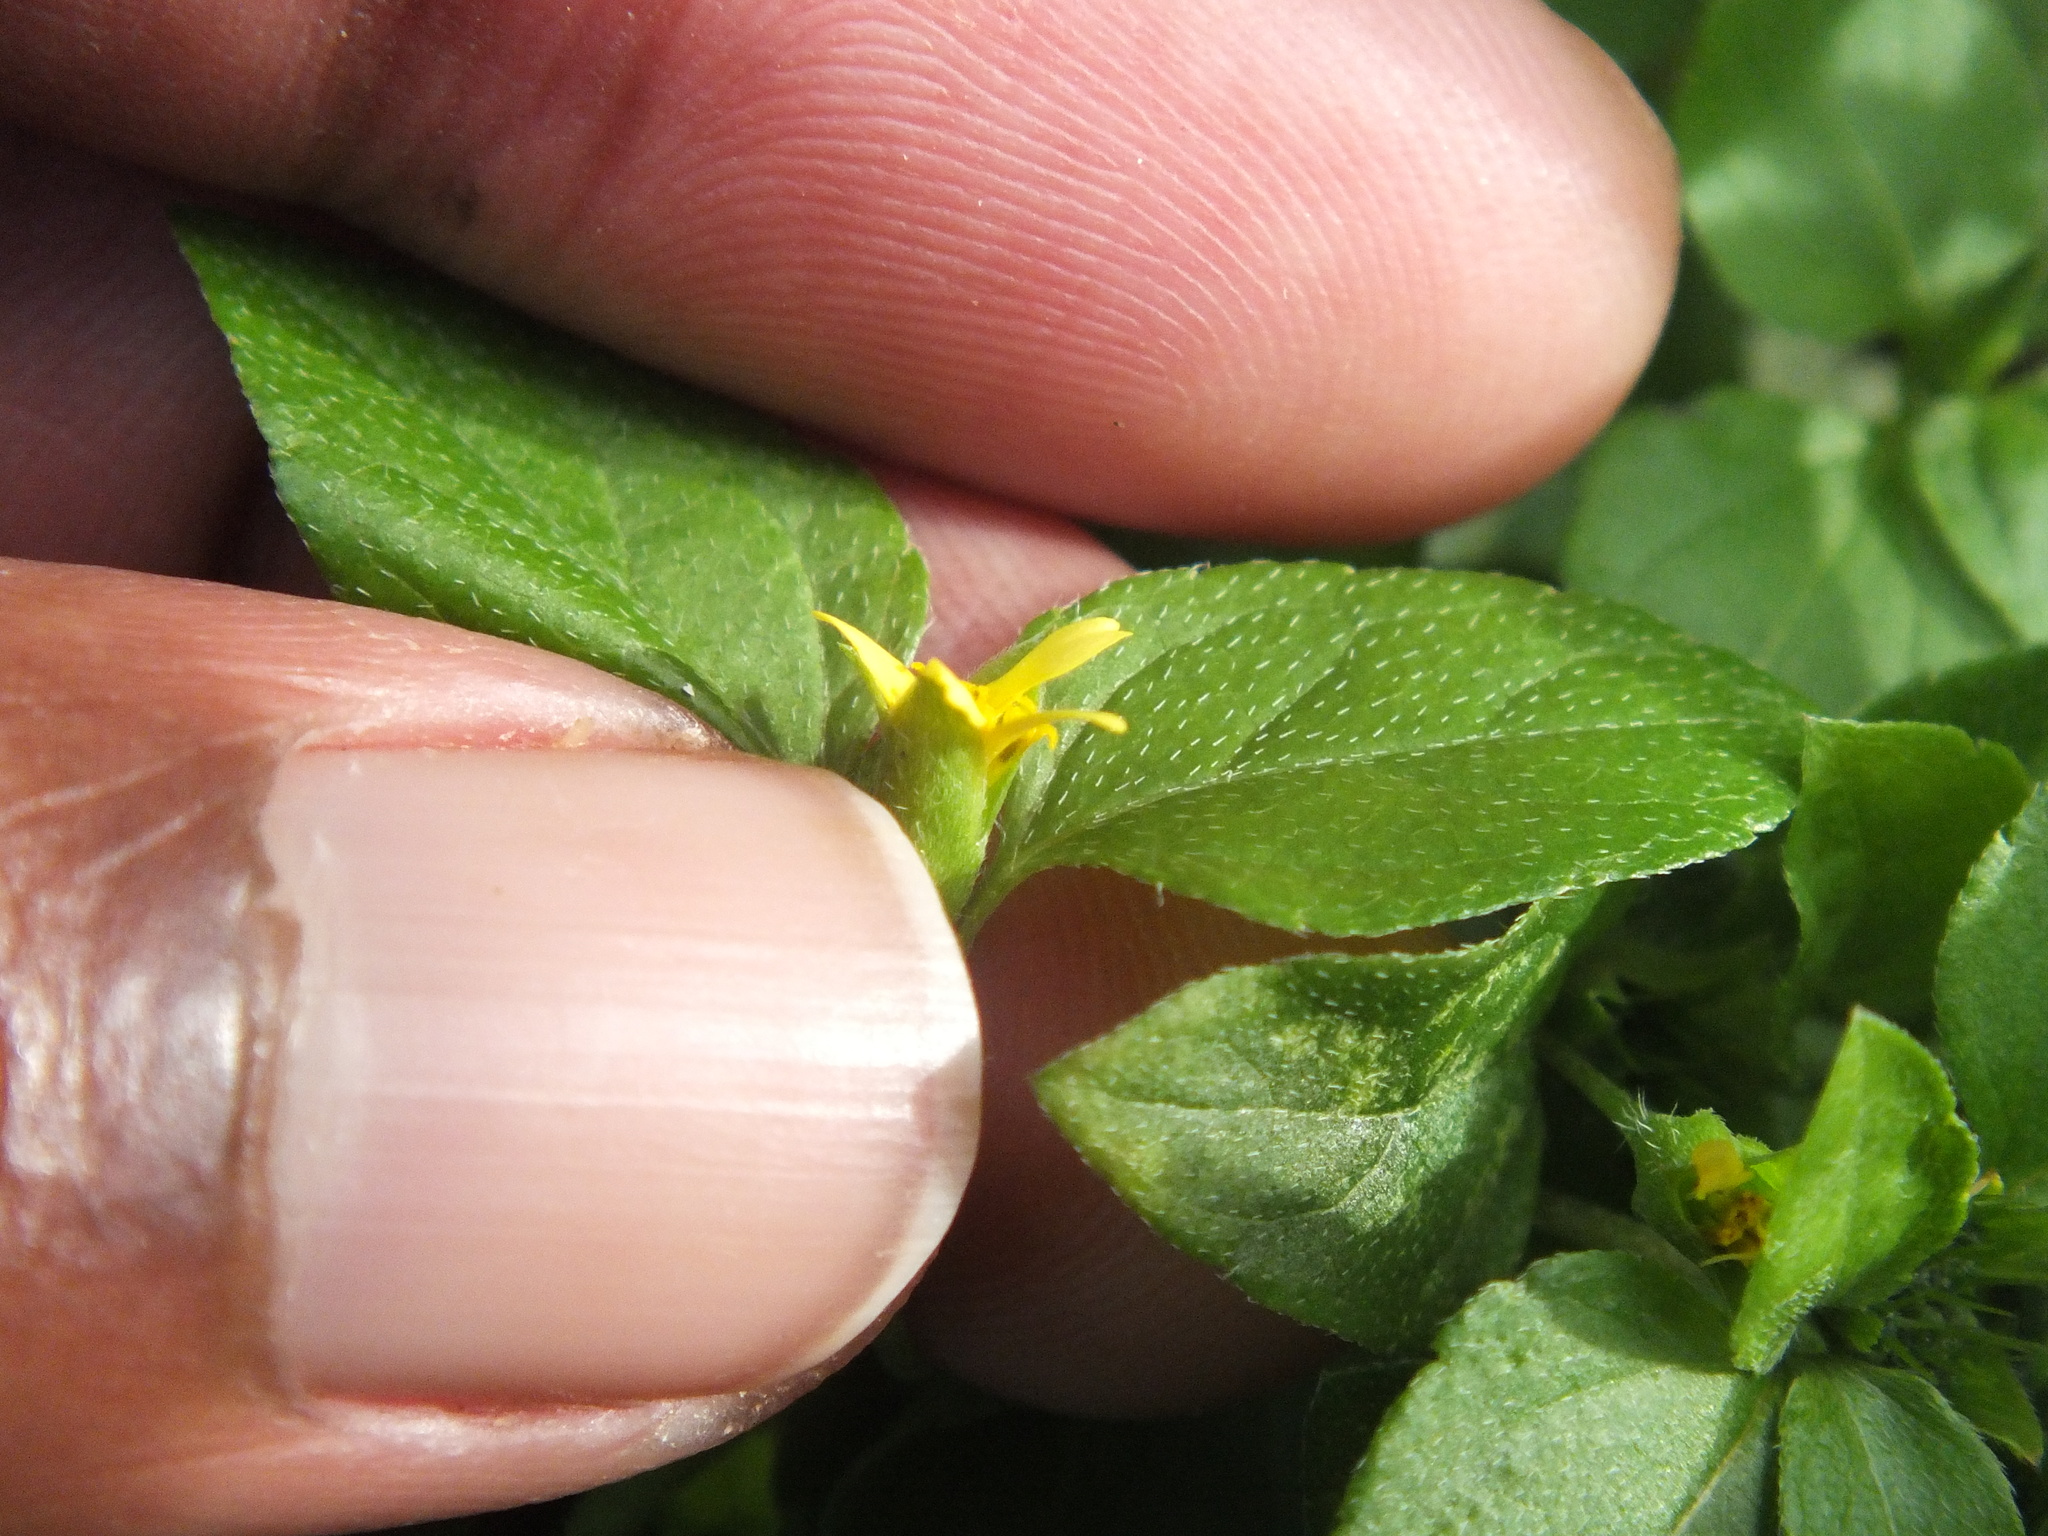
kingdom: Plantae
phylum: Tracheophyta
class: Magnoliopsida
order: Asterales
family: Asteraceae
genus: Calyptocarpus
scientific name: Calyptocarpus vialis
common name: Straggler daisy
